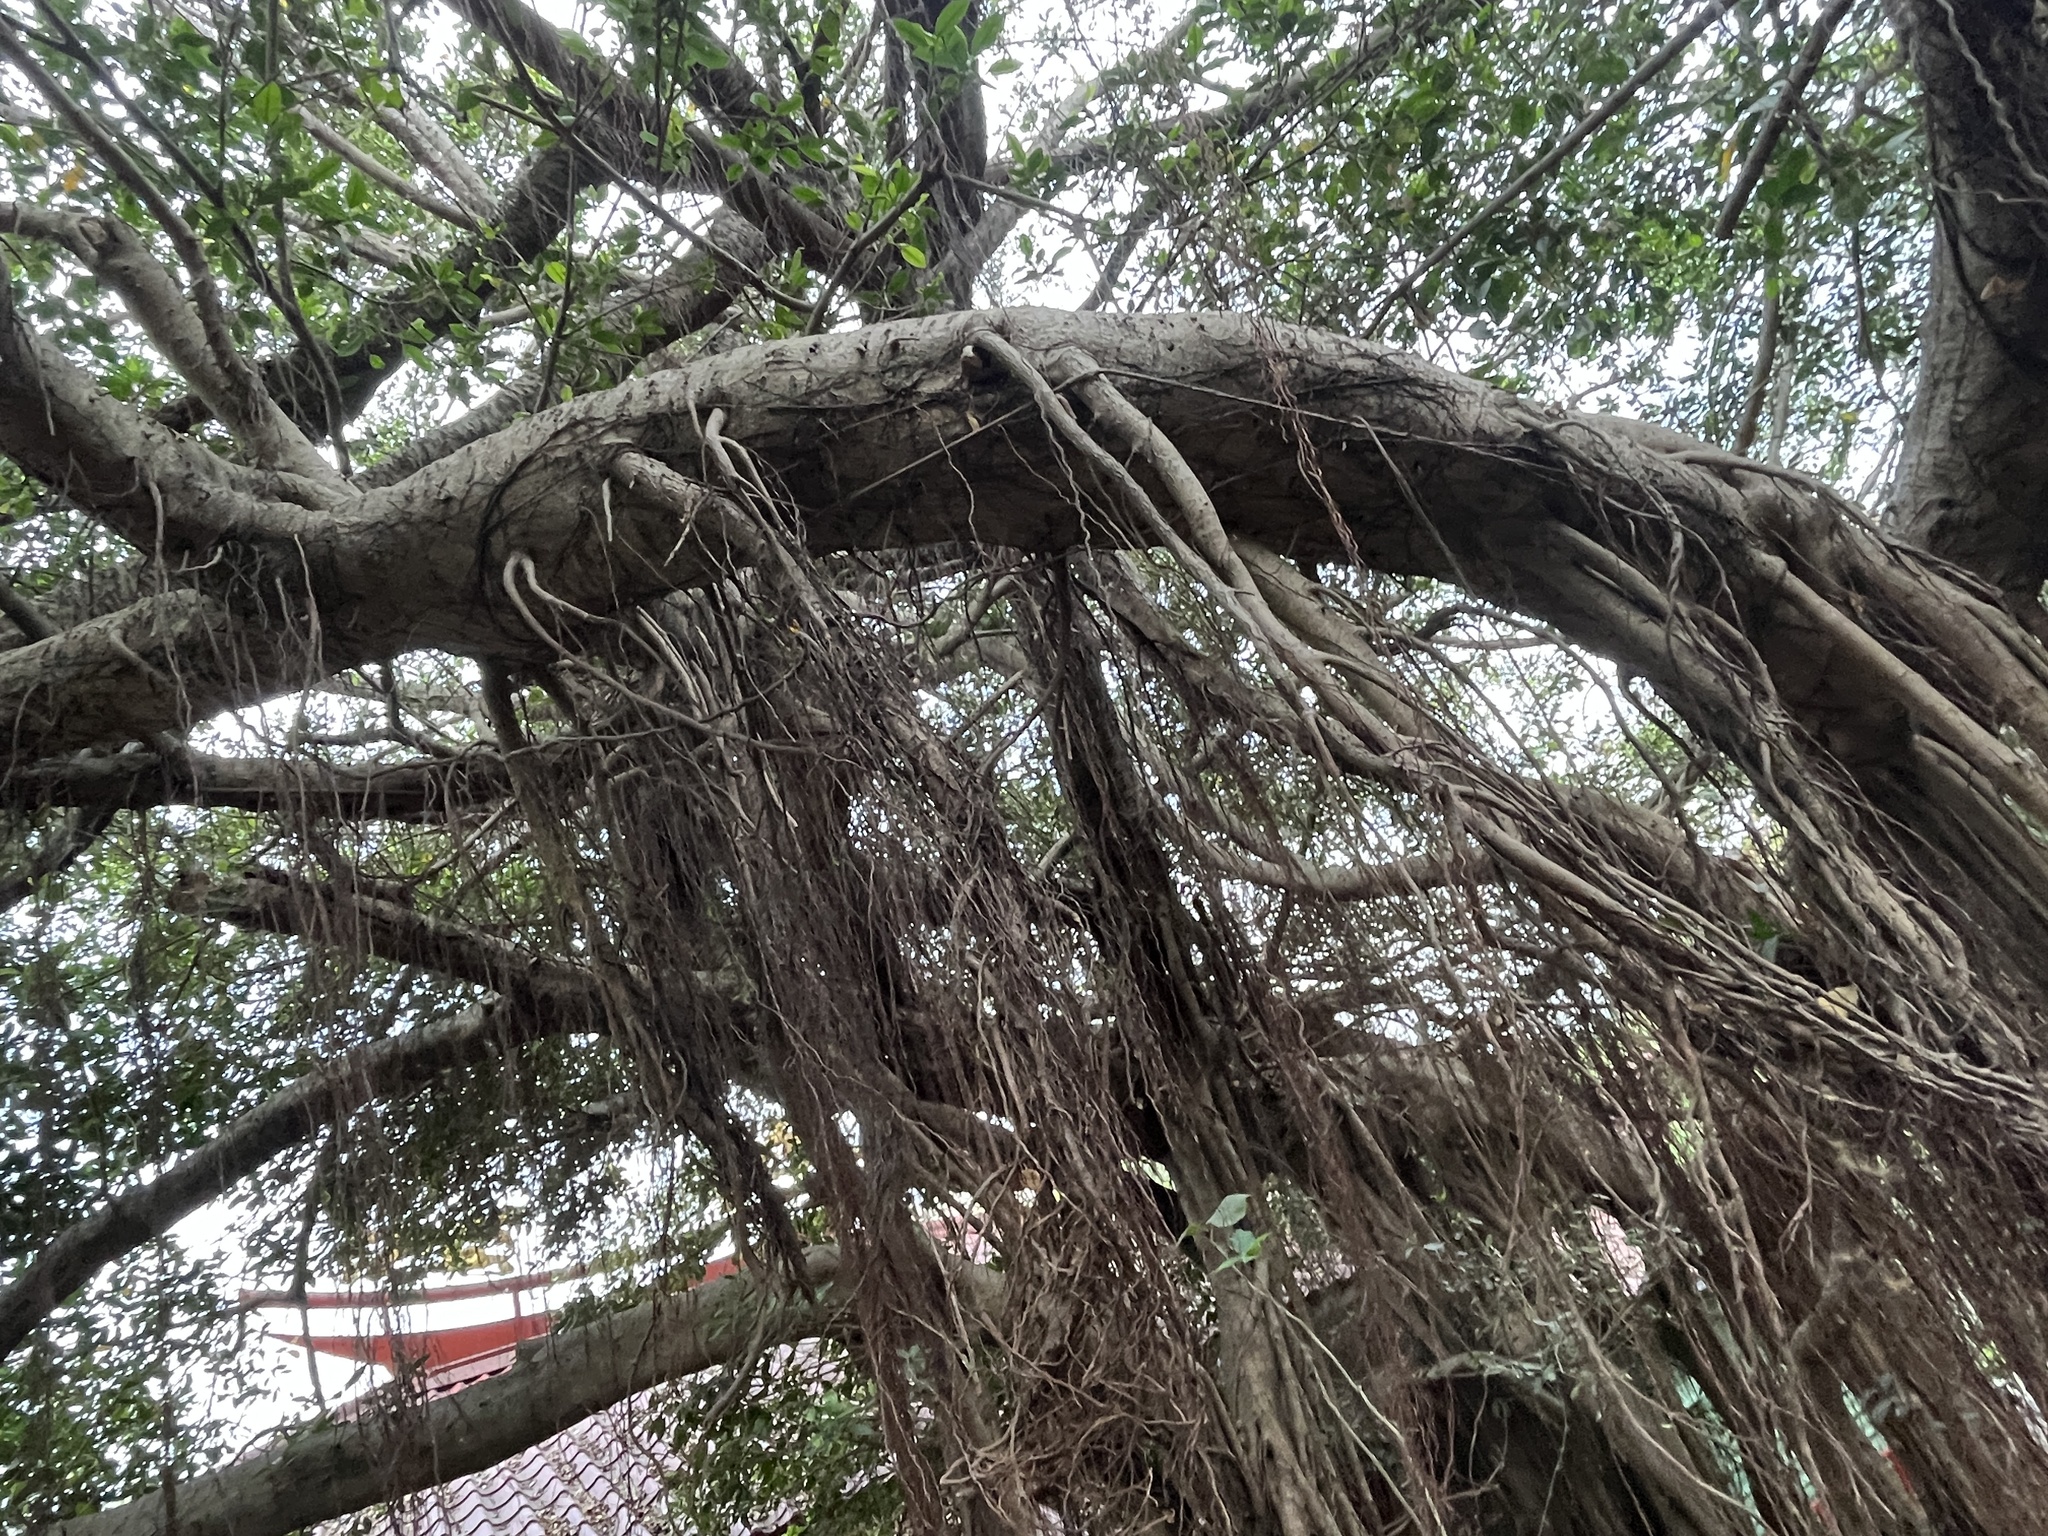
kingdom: Plantae
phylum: Tracheophyta
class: Magnoliopsida
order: Rosales
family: Moraceae
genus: Ficus
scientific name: Ficus microcarpa
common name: Chinese banyan
